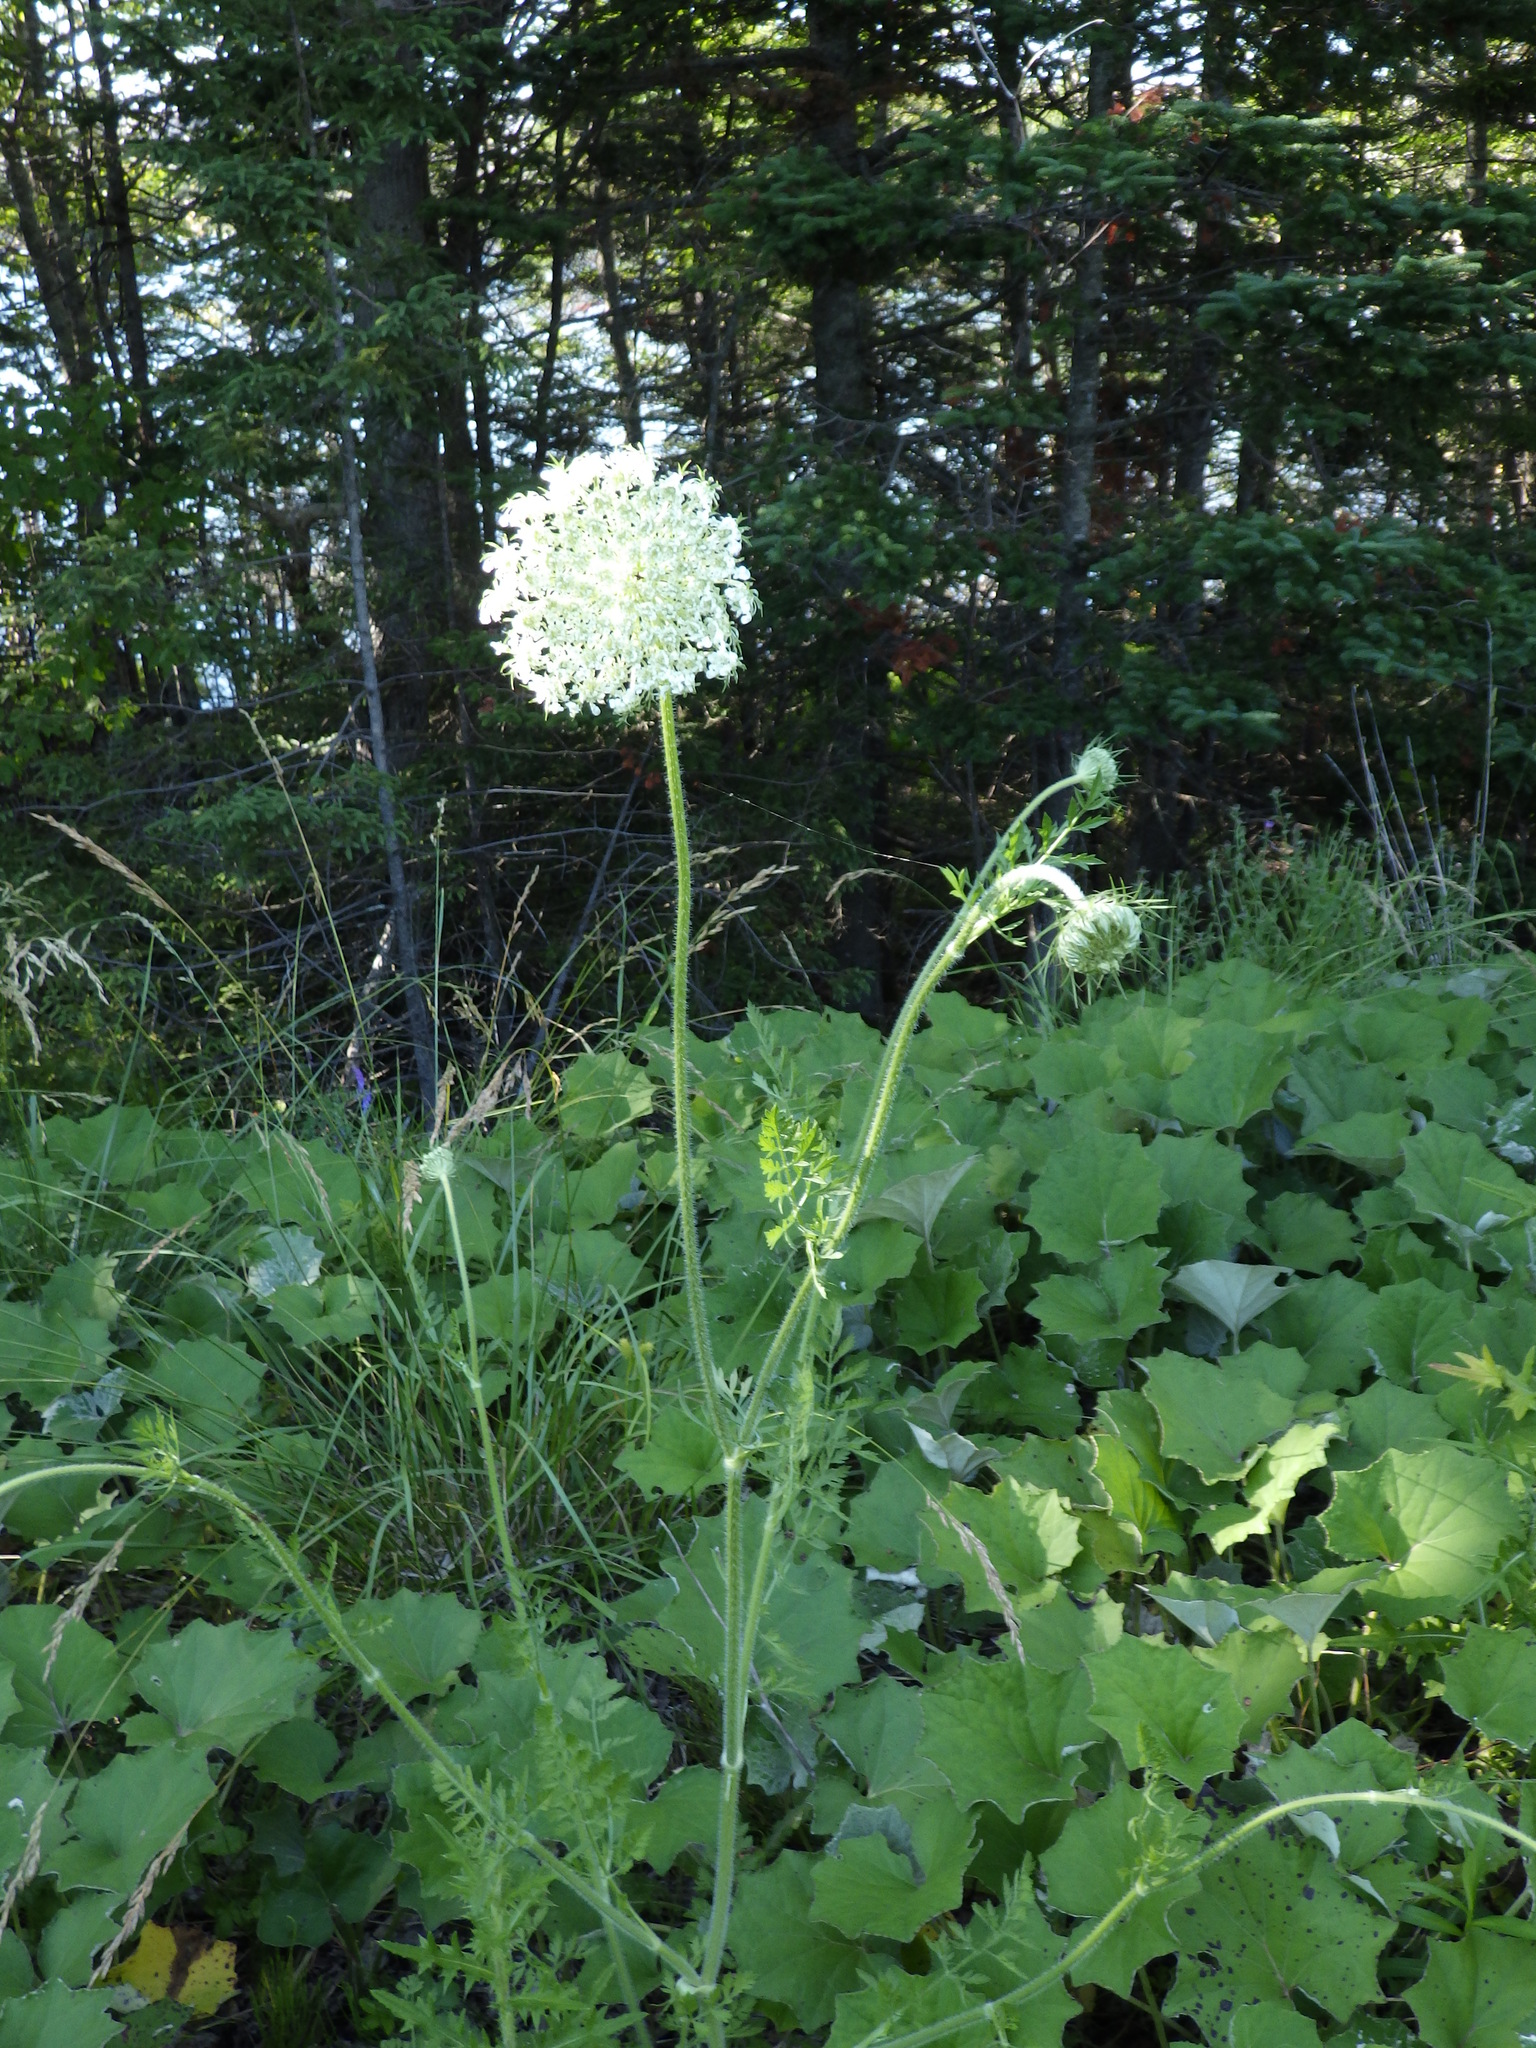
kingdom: Plantae
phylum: Tracheophyta
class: Magnoliopsida
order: Apiales
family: Apiaceae
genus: Daucus
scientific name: Daucus carota
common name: Wild carrot
